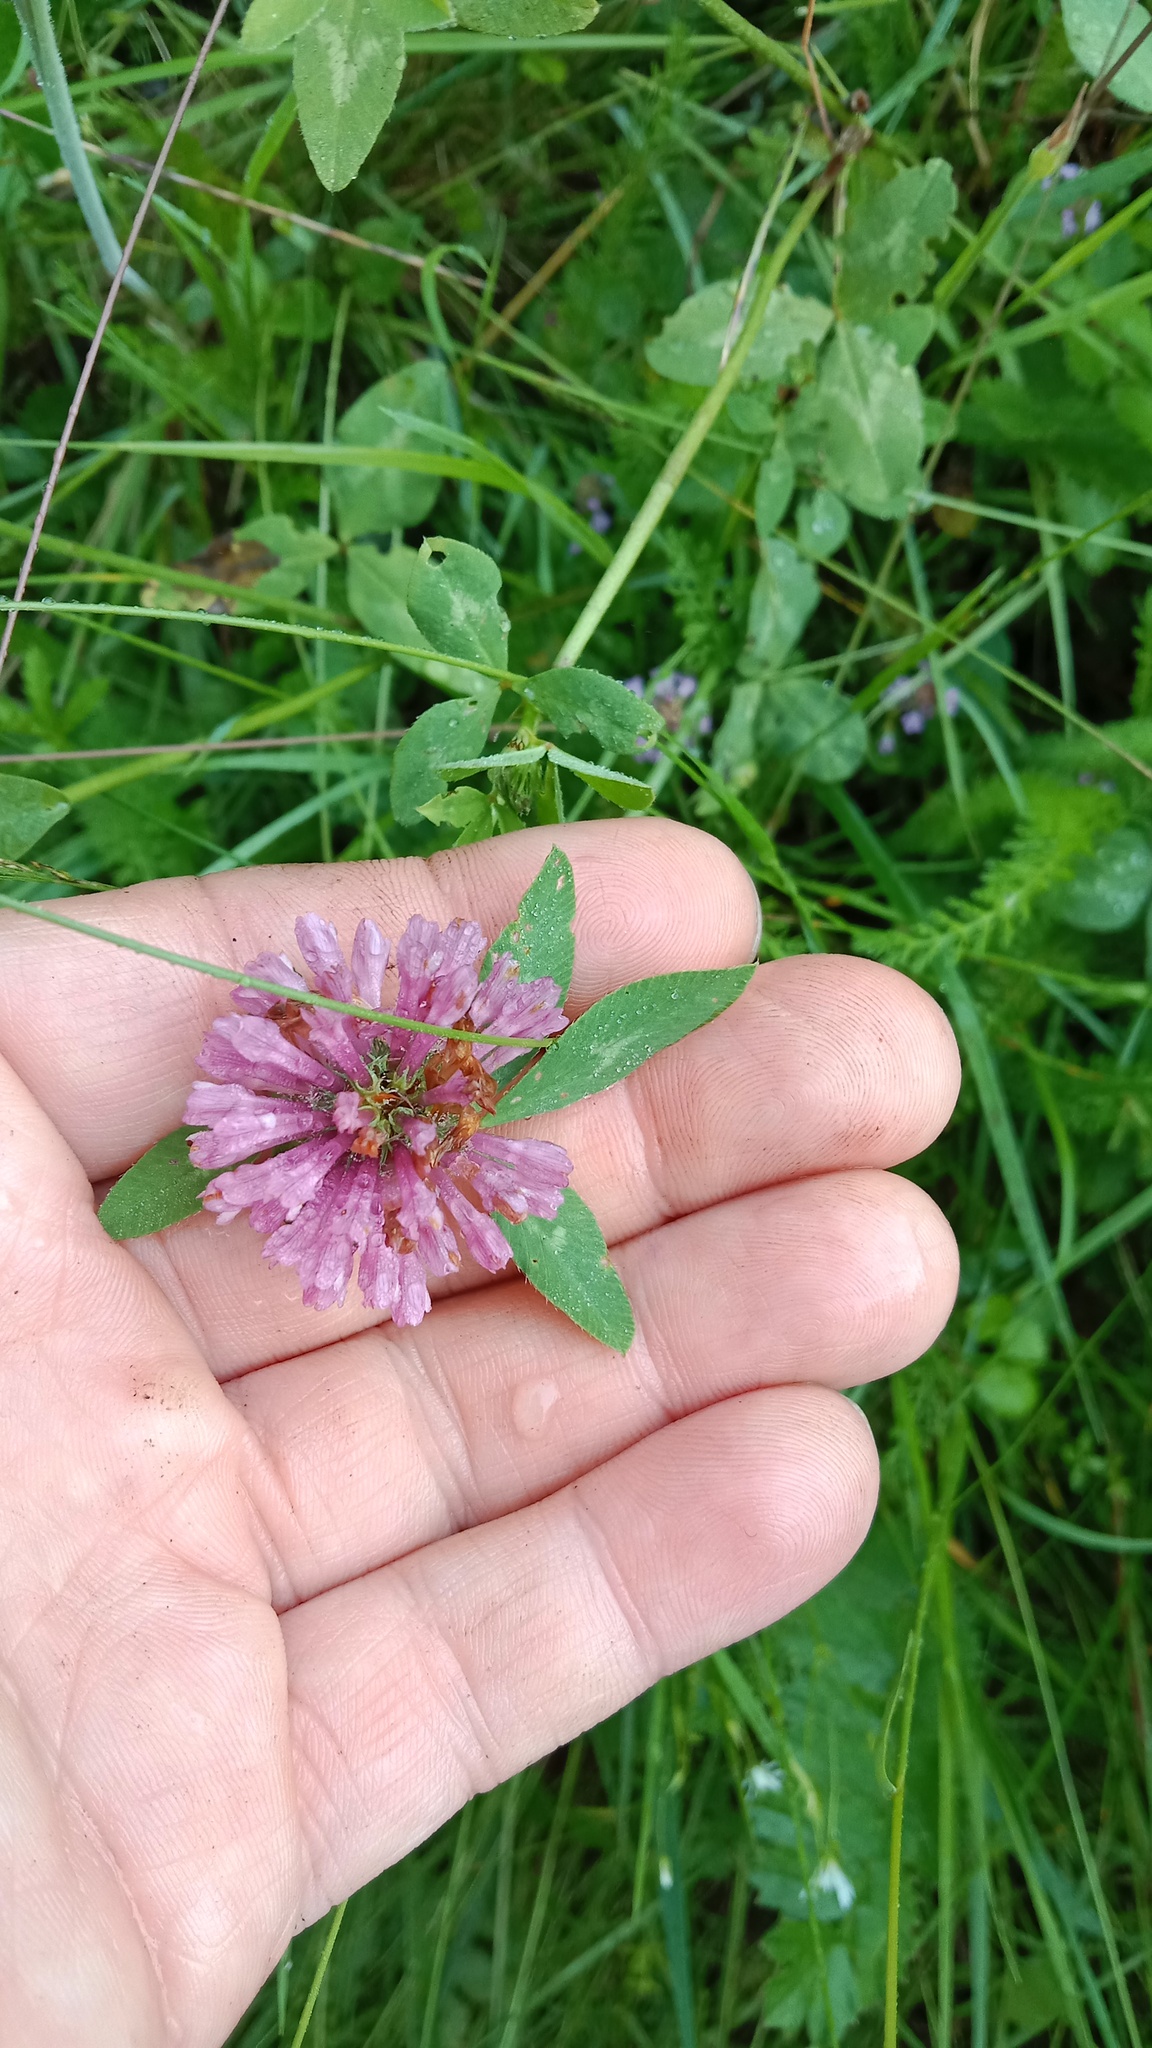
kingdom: Plantae
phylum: Tracheophyta
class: Magnoliopsida
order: Fabales
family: Fabaceae
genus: Trifolium
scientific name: Trifolium pratense
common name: Red clover
